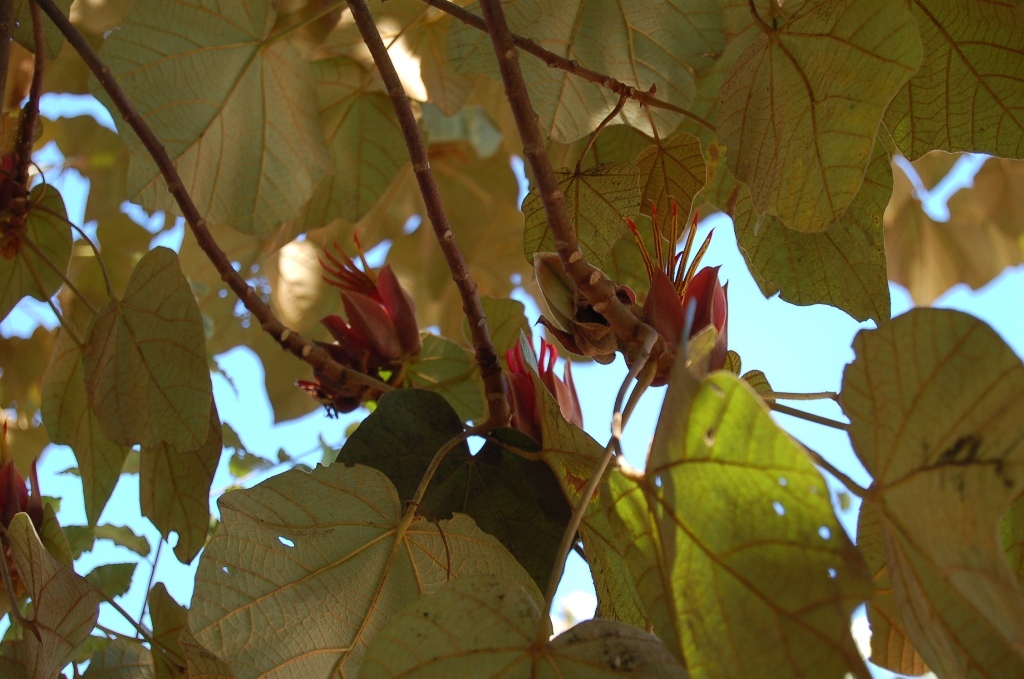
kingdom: Plantae
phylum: Tracheophyta
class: Magnoliopsida
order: Malvales
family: Malvaceae
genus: Chiranthodendron
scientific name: Chiranthodendron pentadactylon
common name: Mexican-hat-plant
